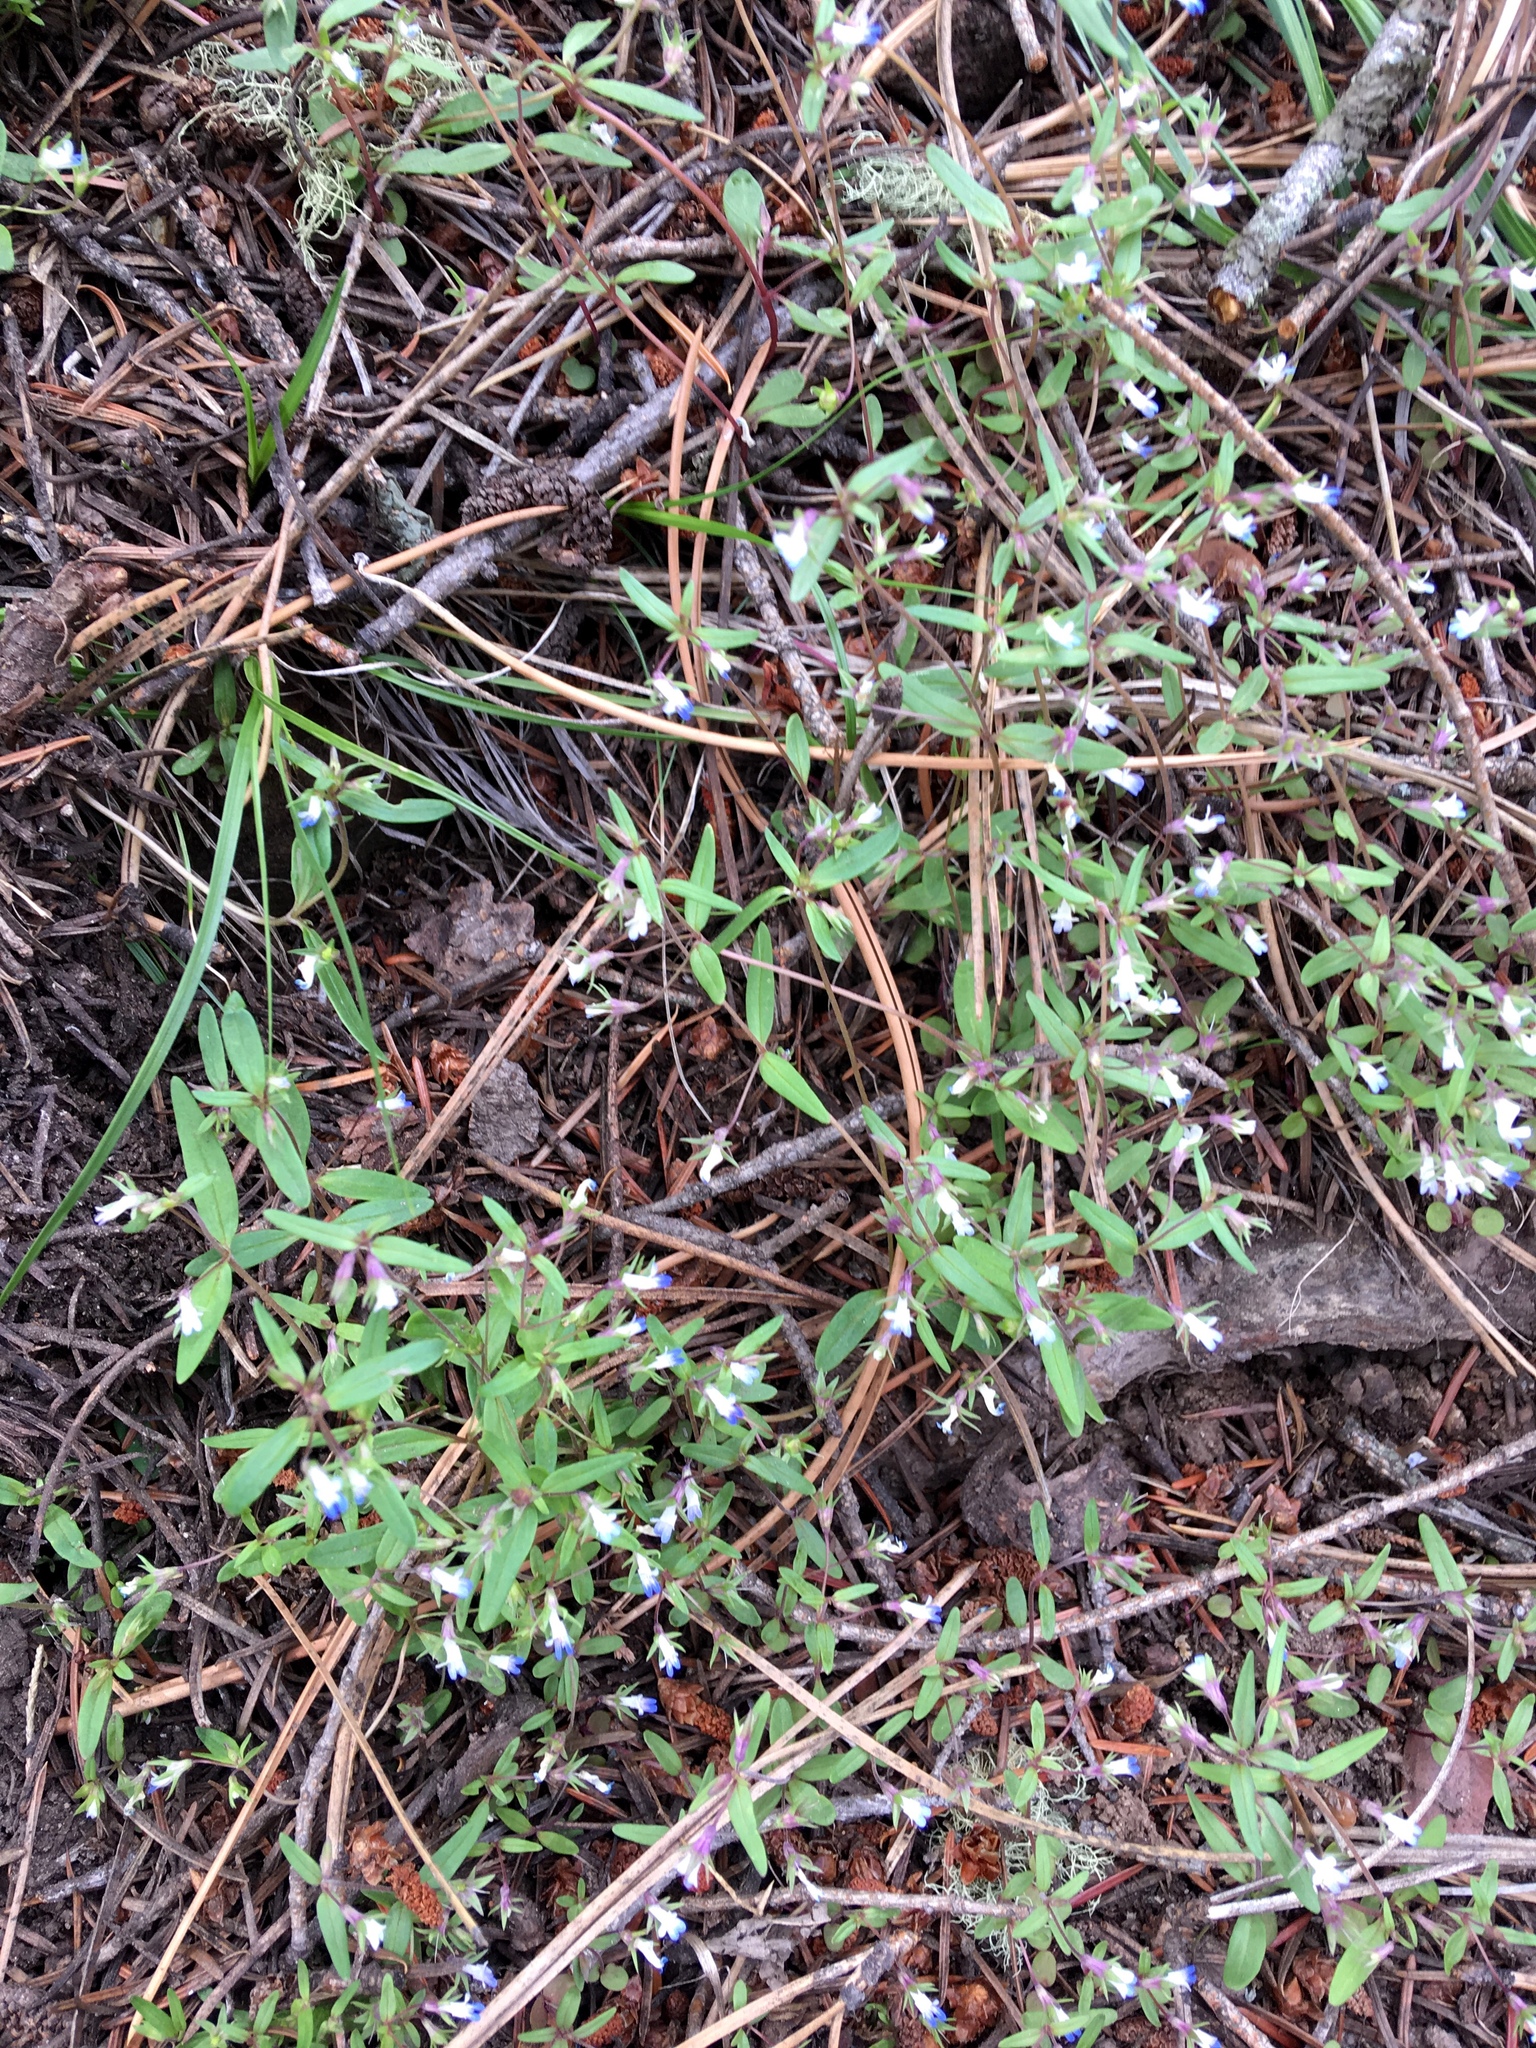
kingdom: Plantae
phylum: Tracheophyta
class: Magnoliopsida
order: Lamiales
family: Plantaginaceae
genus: Collinsia
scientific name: Collinsia parviflora
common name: Blue-lips
